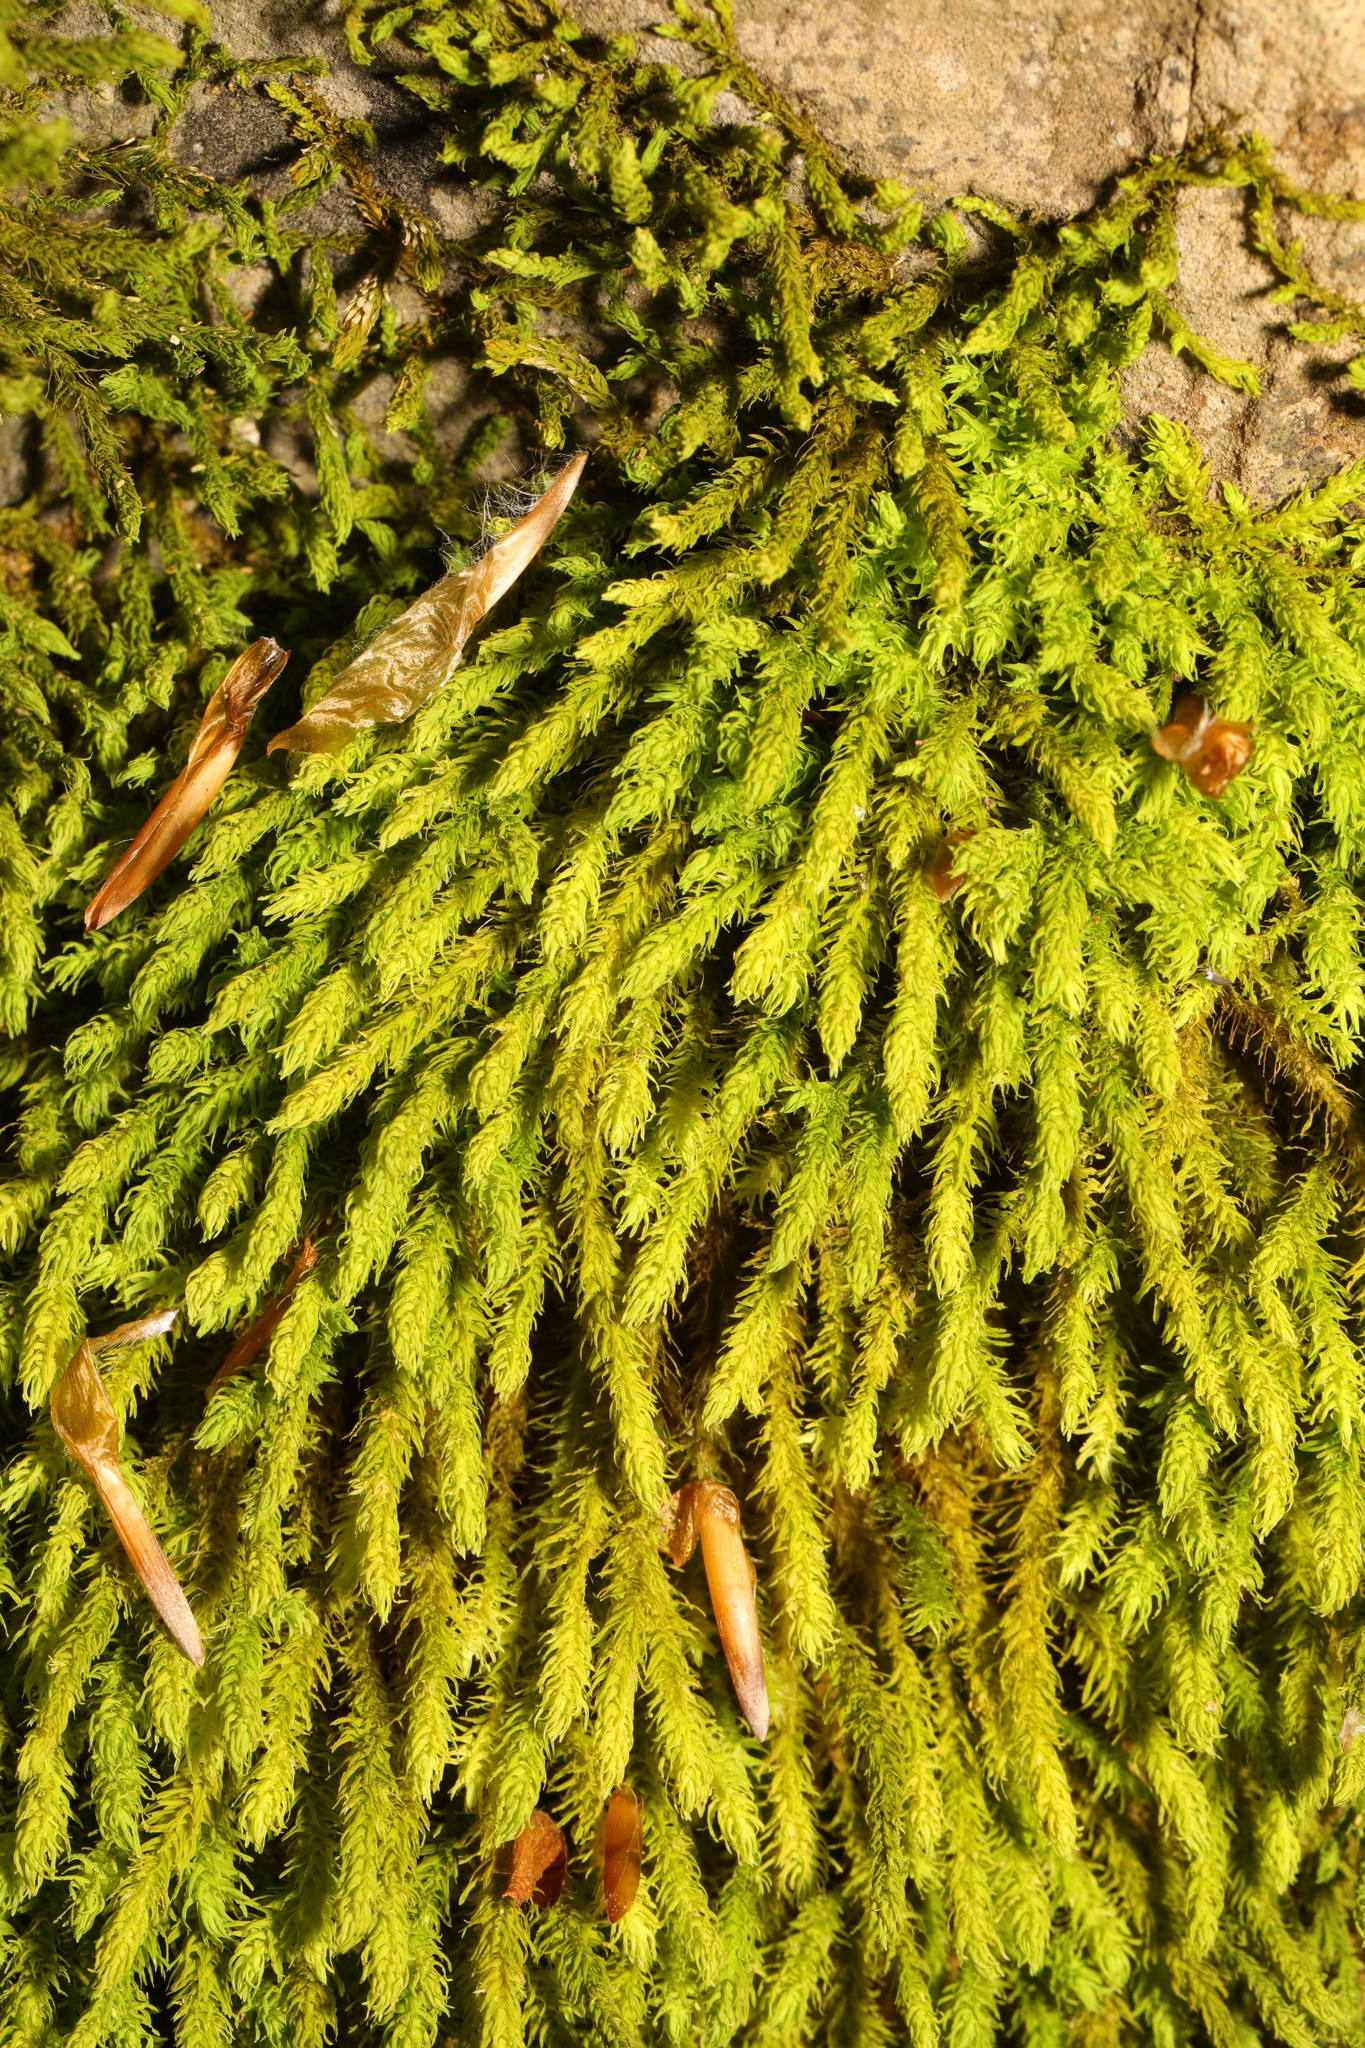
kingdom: Plantae
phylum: Bryophyta
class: Bryopsida
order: Hypnales
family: Anomodontaceae
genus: Anomodon
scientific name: Anomodon viticulosus
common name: Tall anomodon
